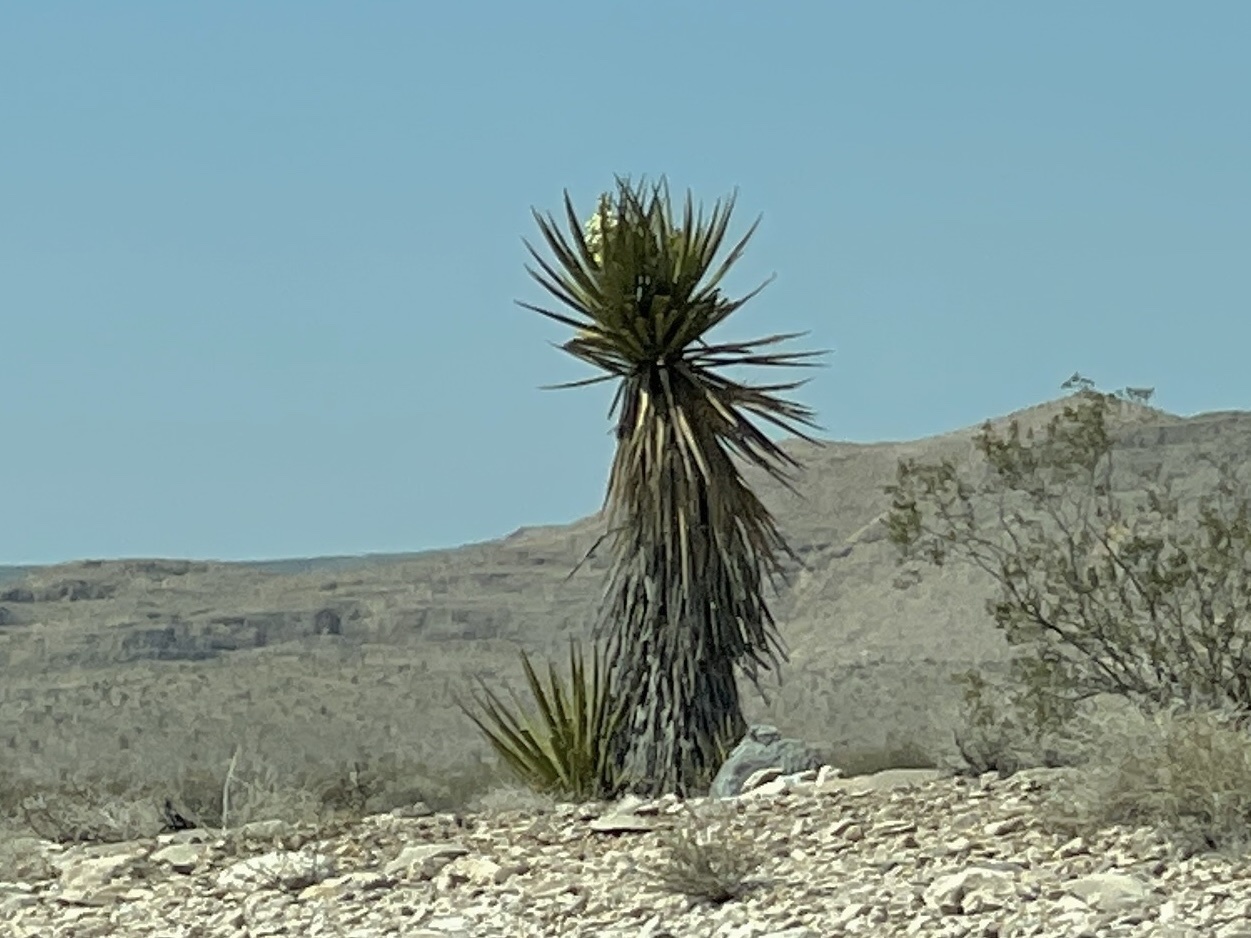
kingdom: Plantae
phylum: Tracheophyta
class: Liliopsida
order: Asparagales
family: Asparagaceae
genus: Yucca
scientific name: Yucca schidigera
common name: Mojave yucca
